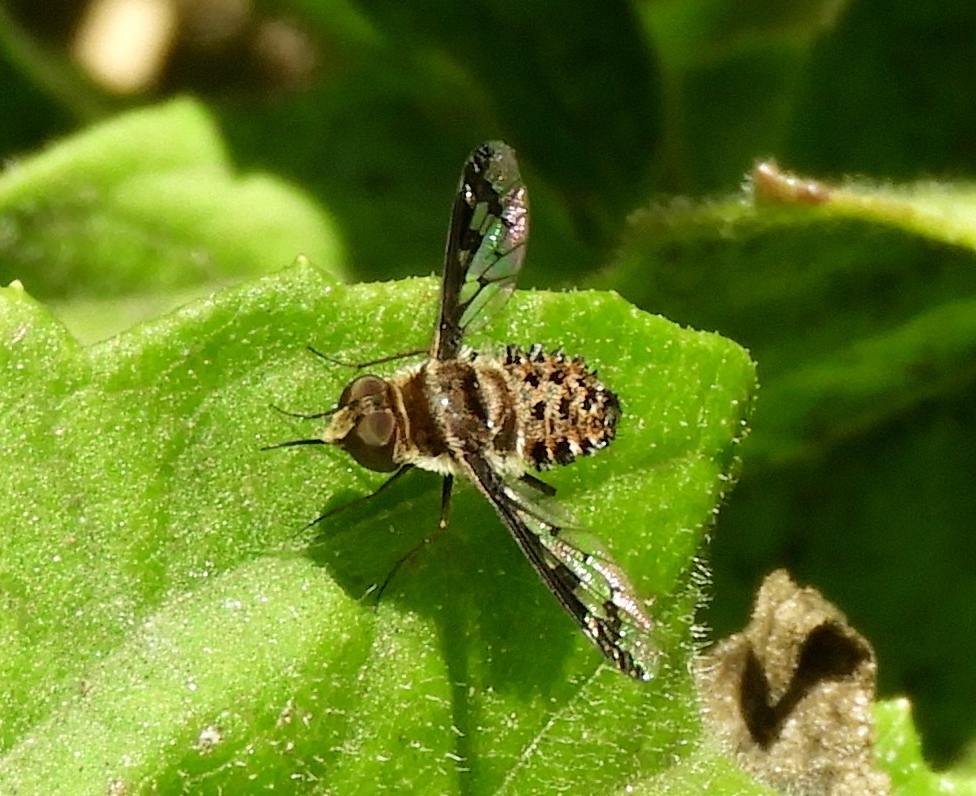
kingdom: Animalia
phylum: Arthropoda
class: Insecta
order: Diptera
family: Bombyliidae
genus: Lepidanthrax
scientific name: Lepidanthrax
